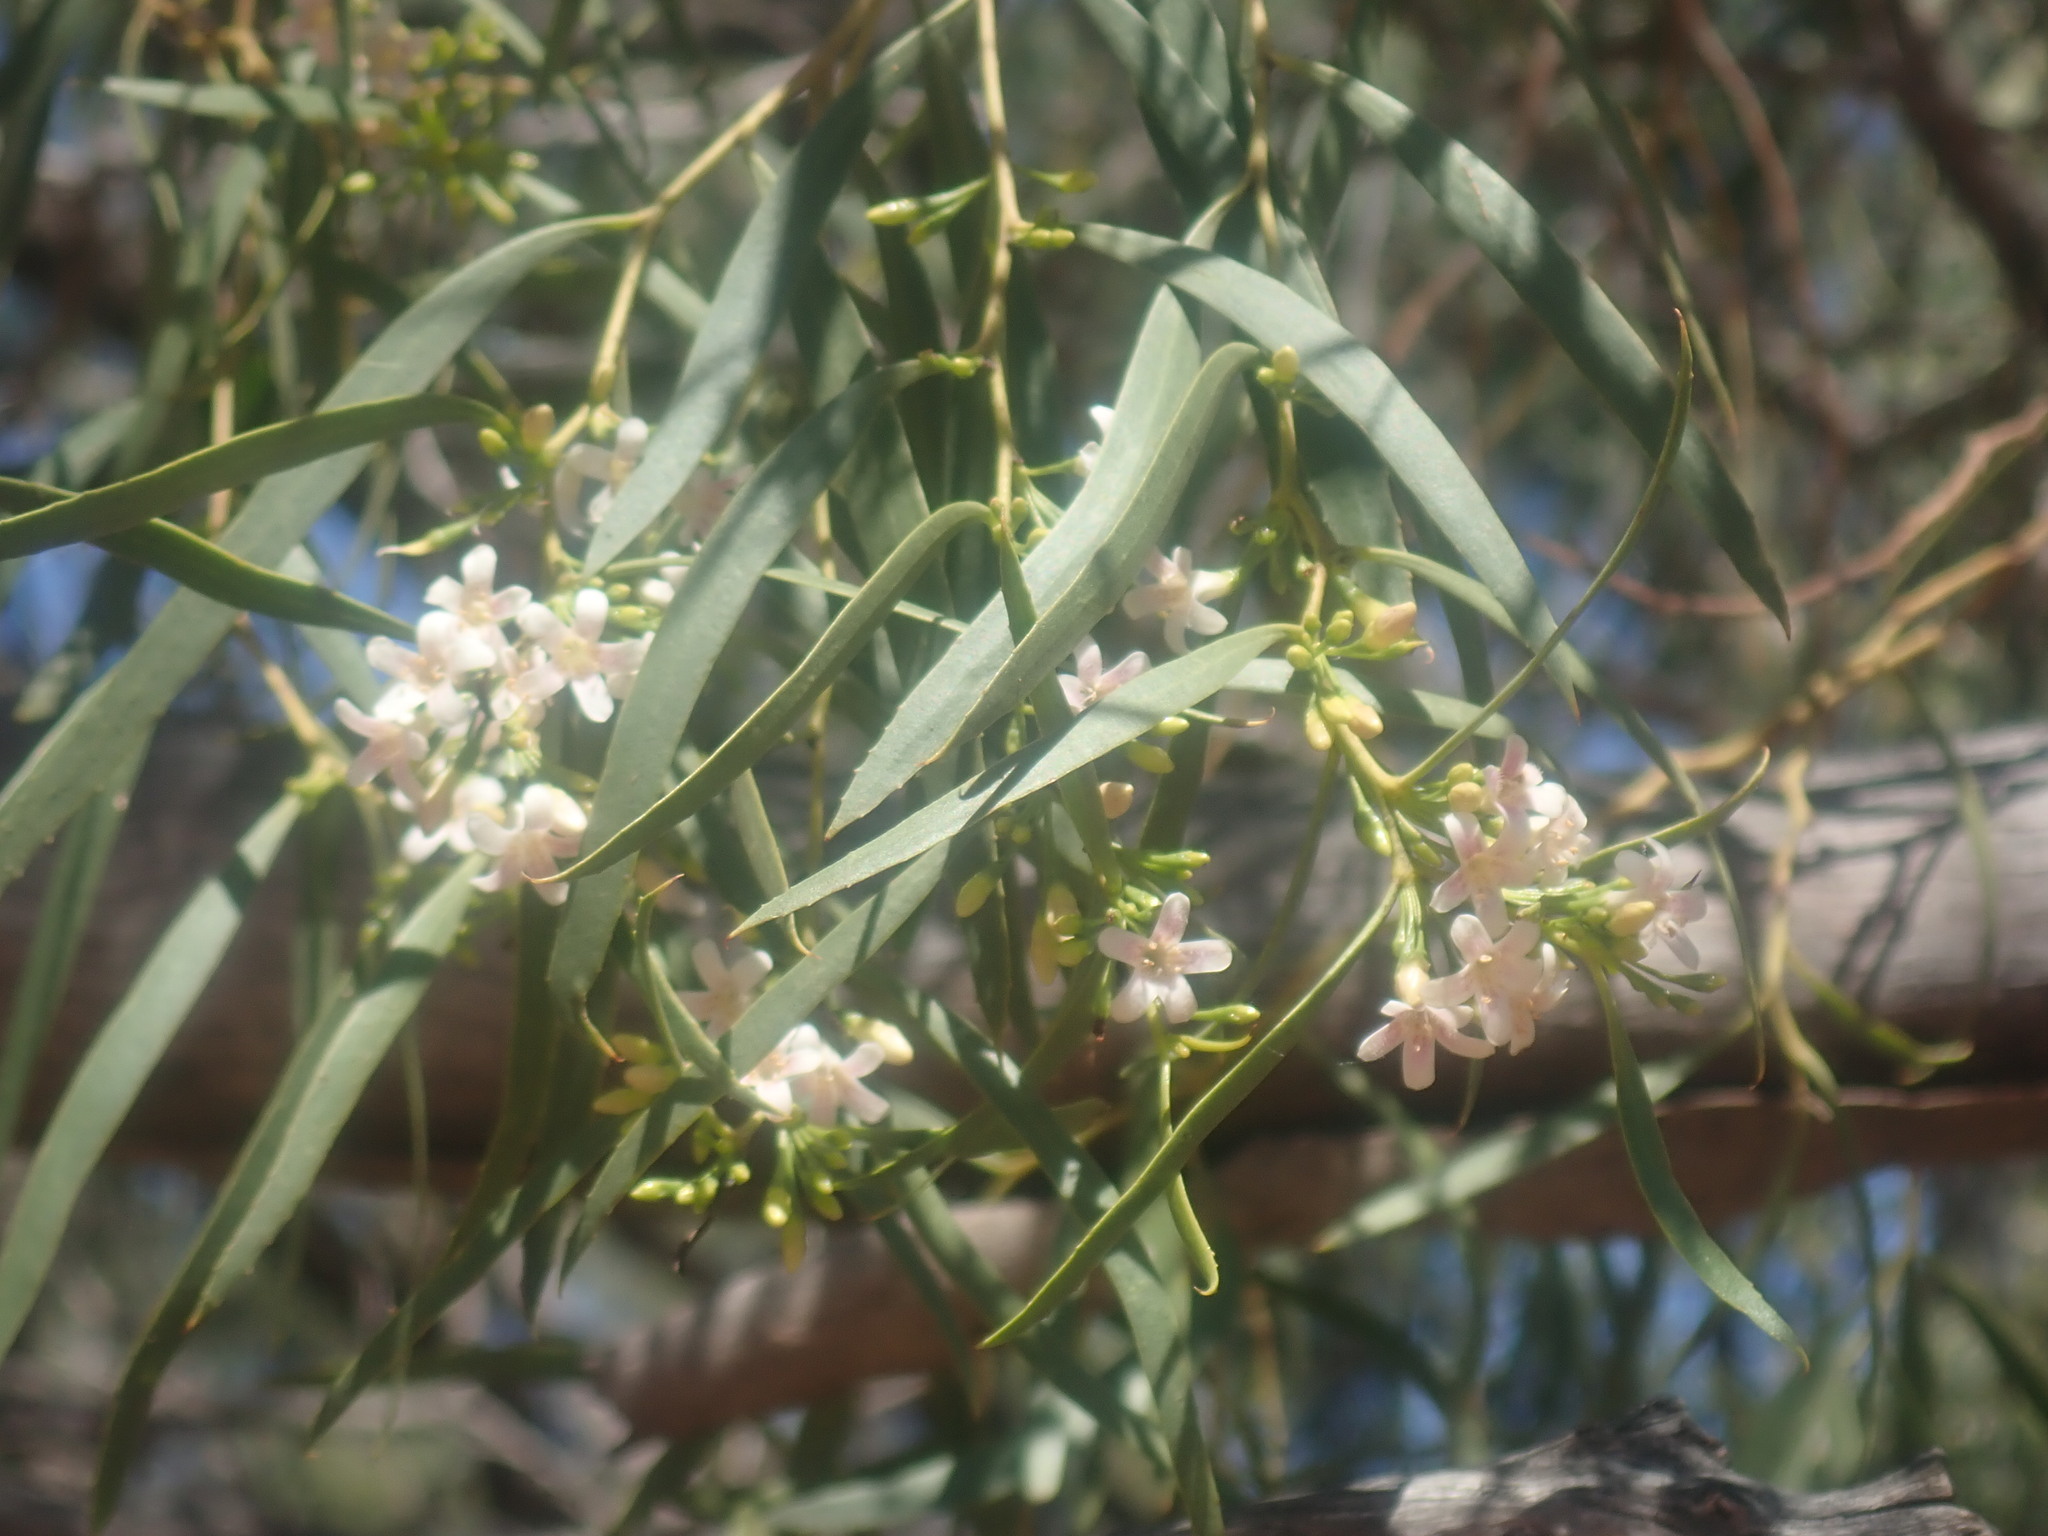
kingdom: Plantae
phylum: Tracheophyta
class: Magnoliopsida
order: Lamiales
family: Scrophulariaceae
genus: Myoporum
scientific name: Myoporum platycarpum
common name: Sugartree
